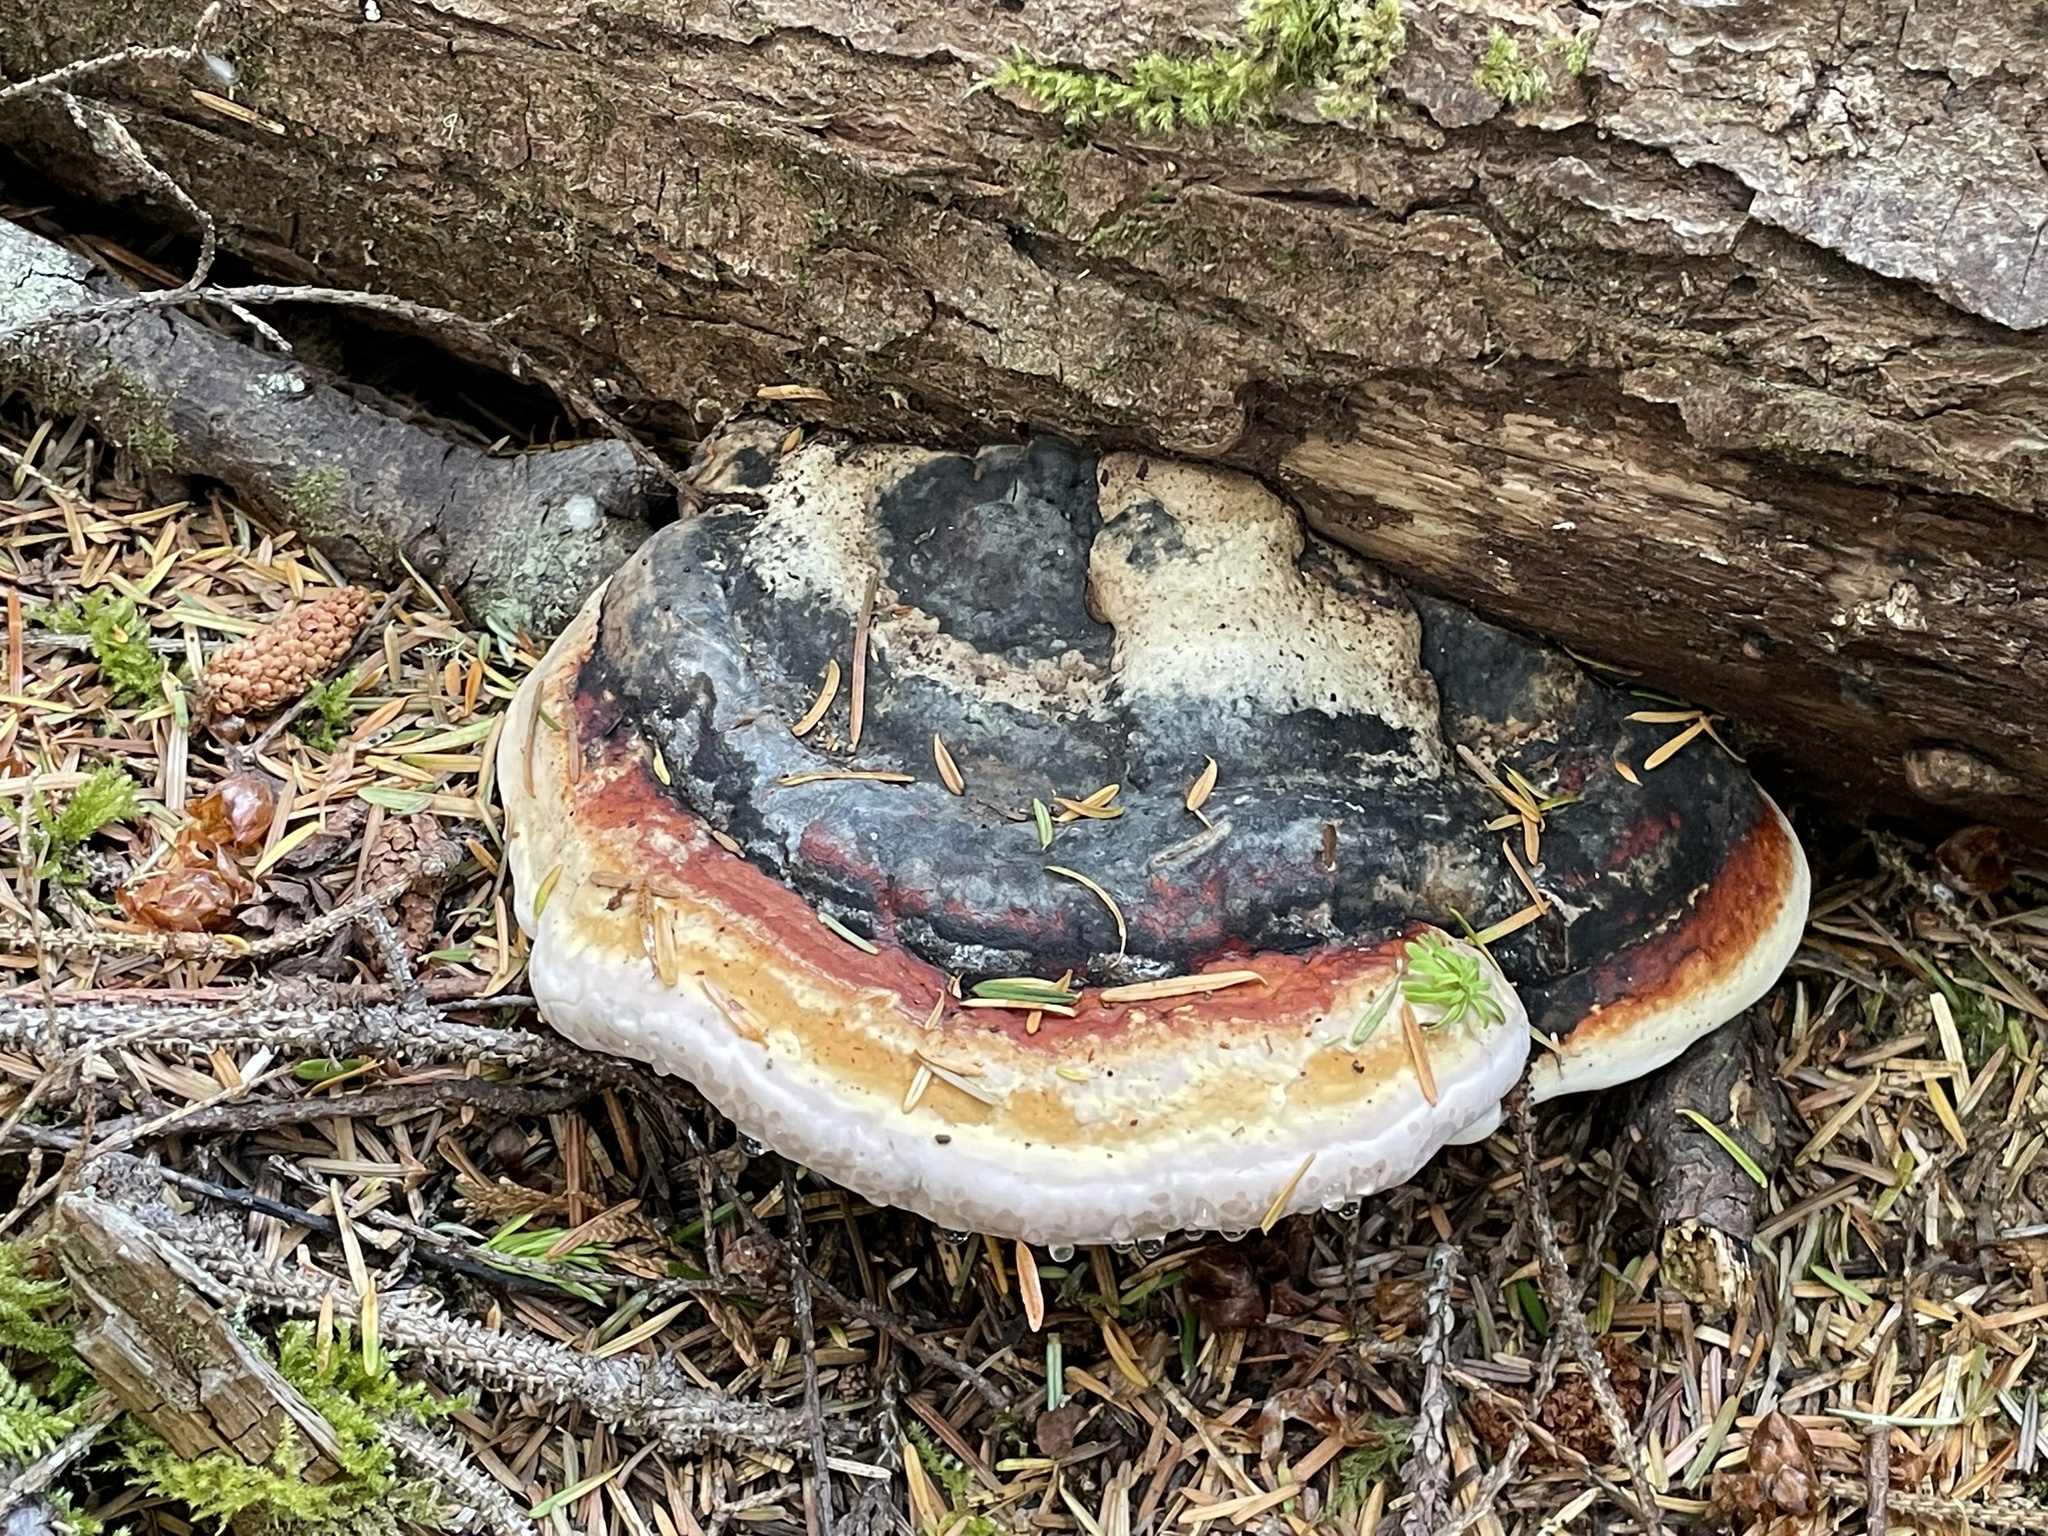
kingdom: Fungi
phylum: Basidiomycota
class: Agaricomycetes
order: Polyporales
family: Fomitopsidaceae
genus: Fomitopsis
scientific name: Fomitopsis mounceae
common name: Northern red belt
